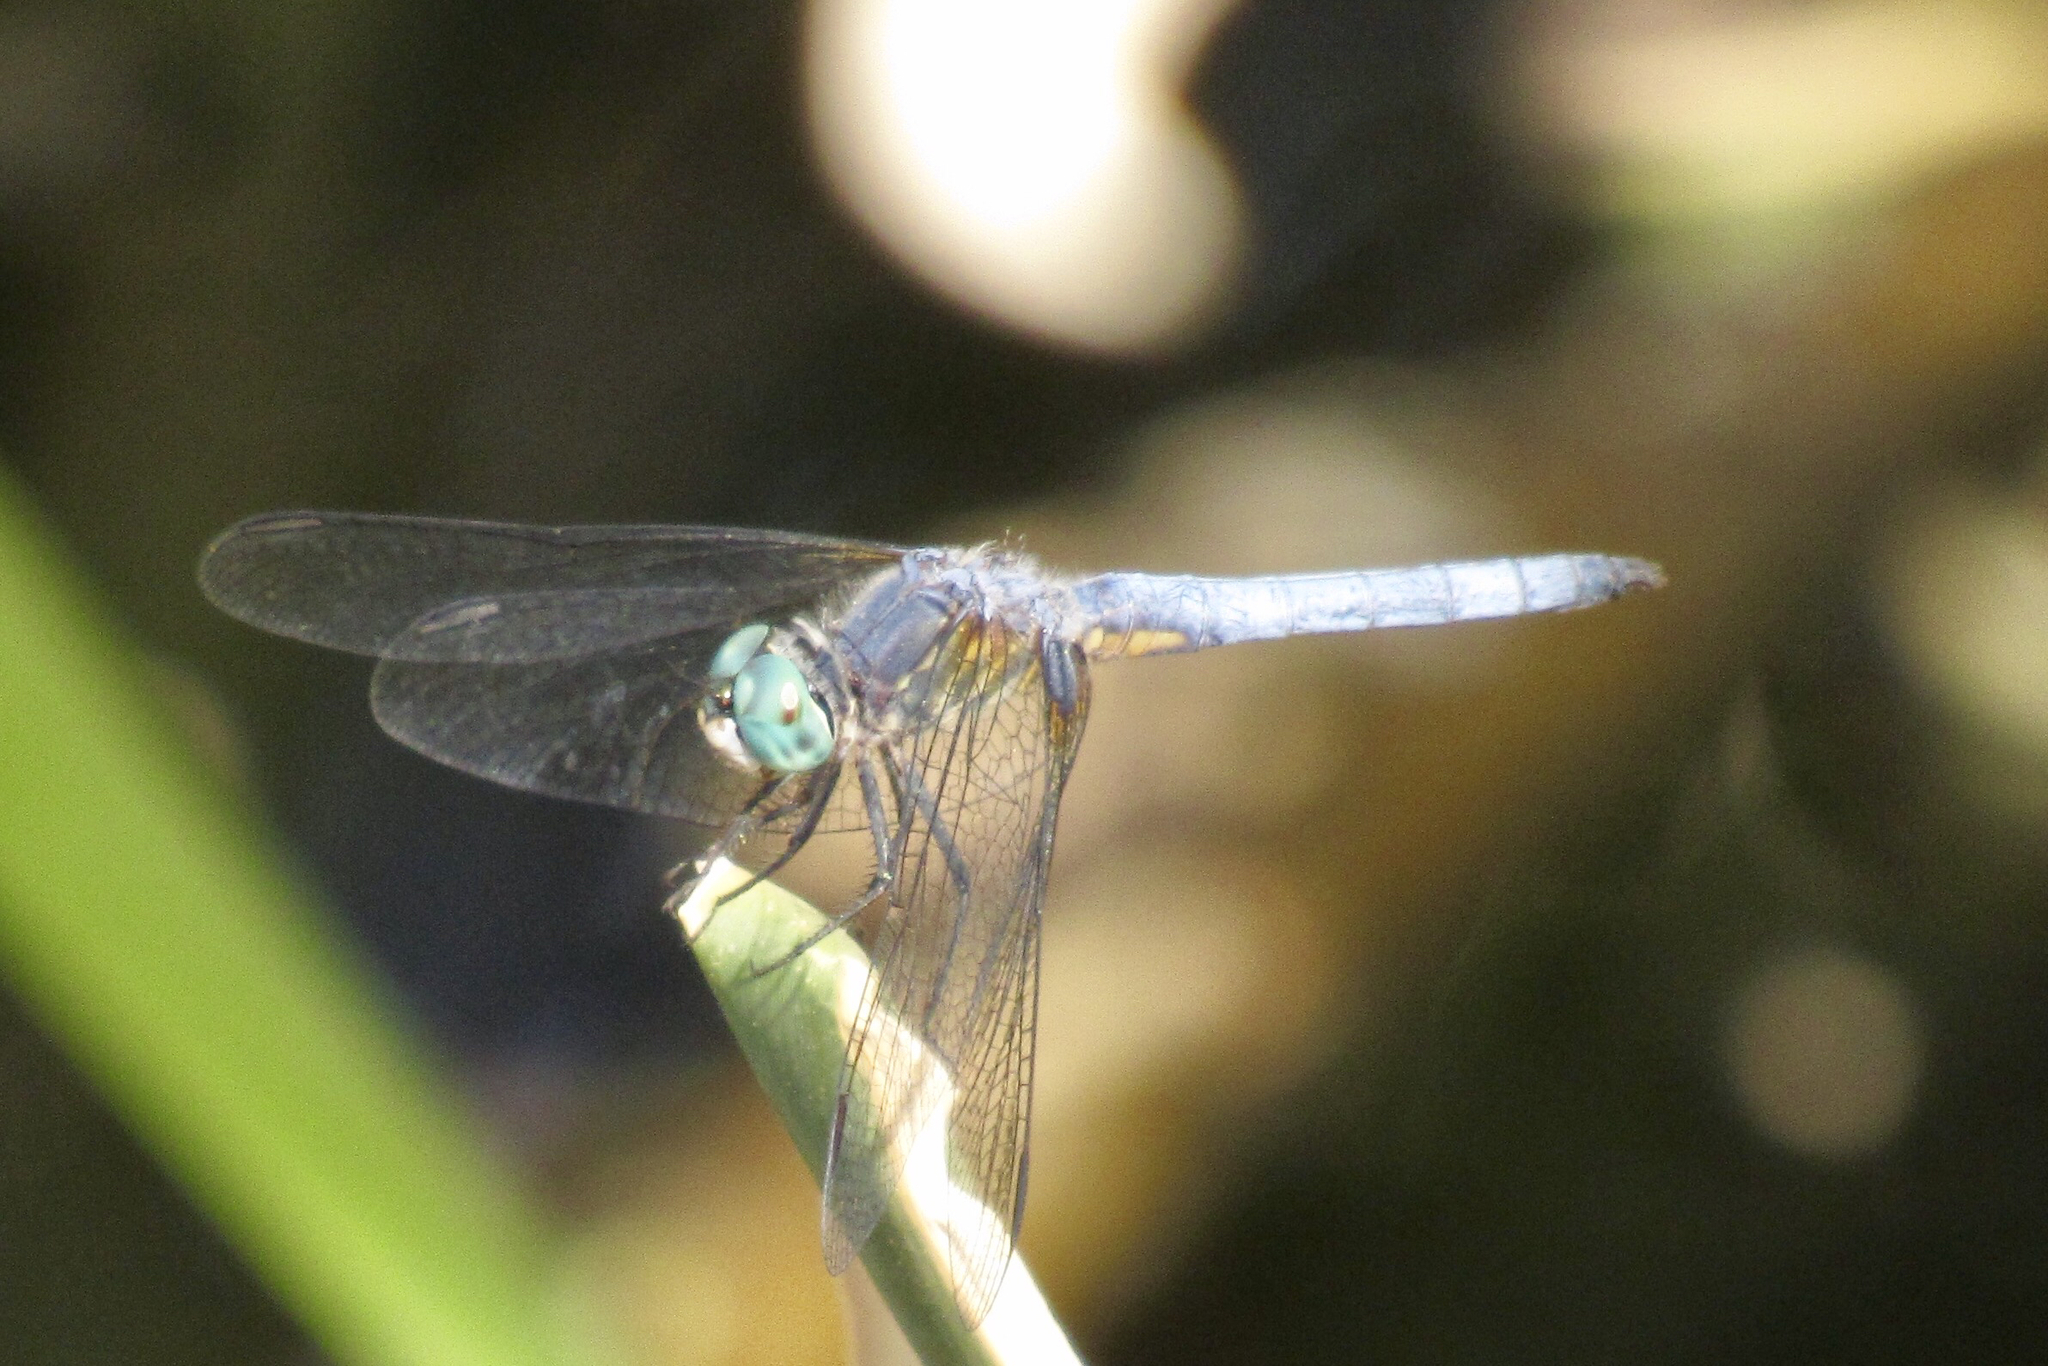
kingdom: Animalia
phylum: Arthropoda
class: Insecta
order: Odonata
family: Libellulidae
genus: Pachydiplax
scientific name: Pachydiplax longipennis
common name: Blue dasher
